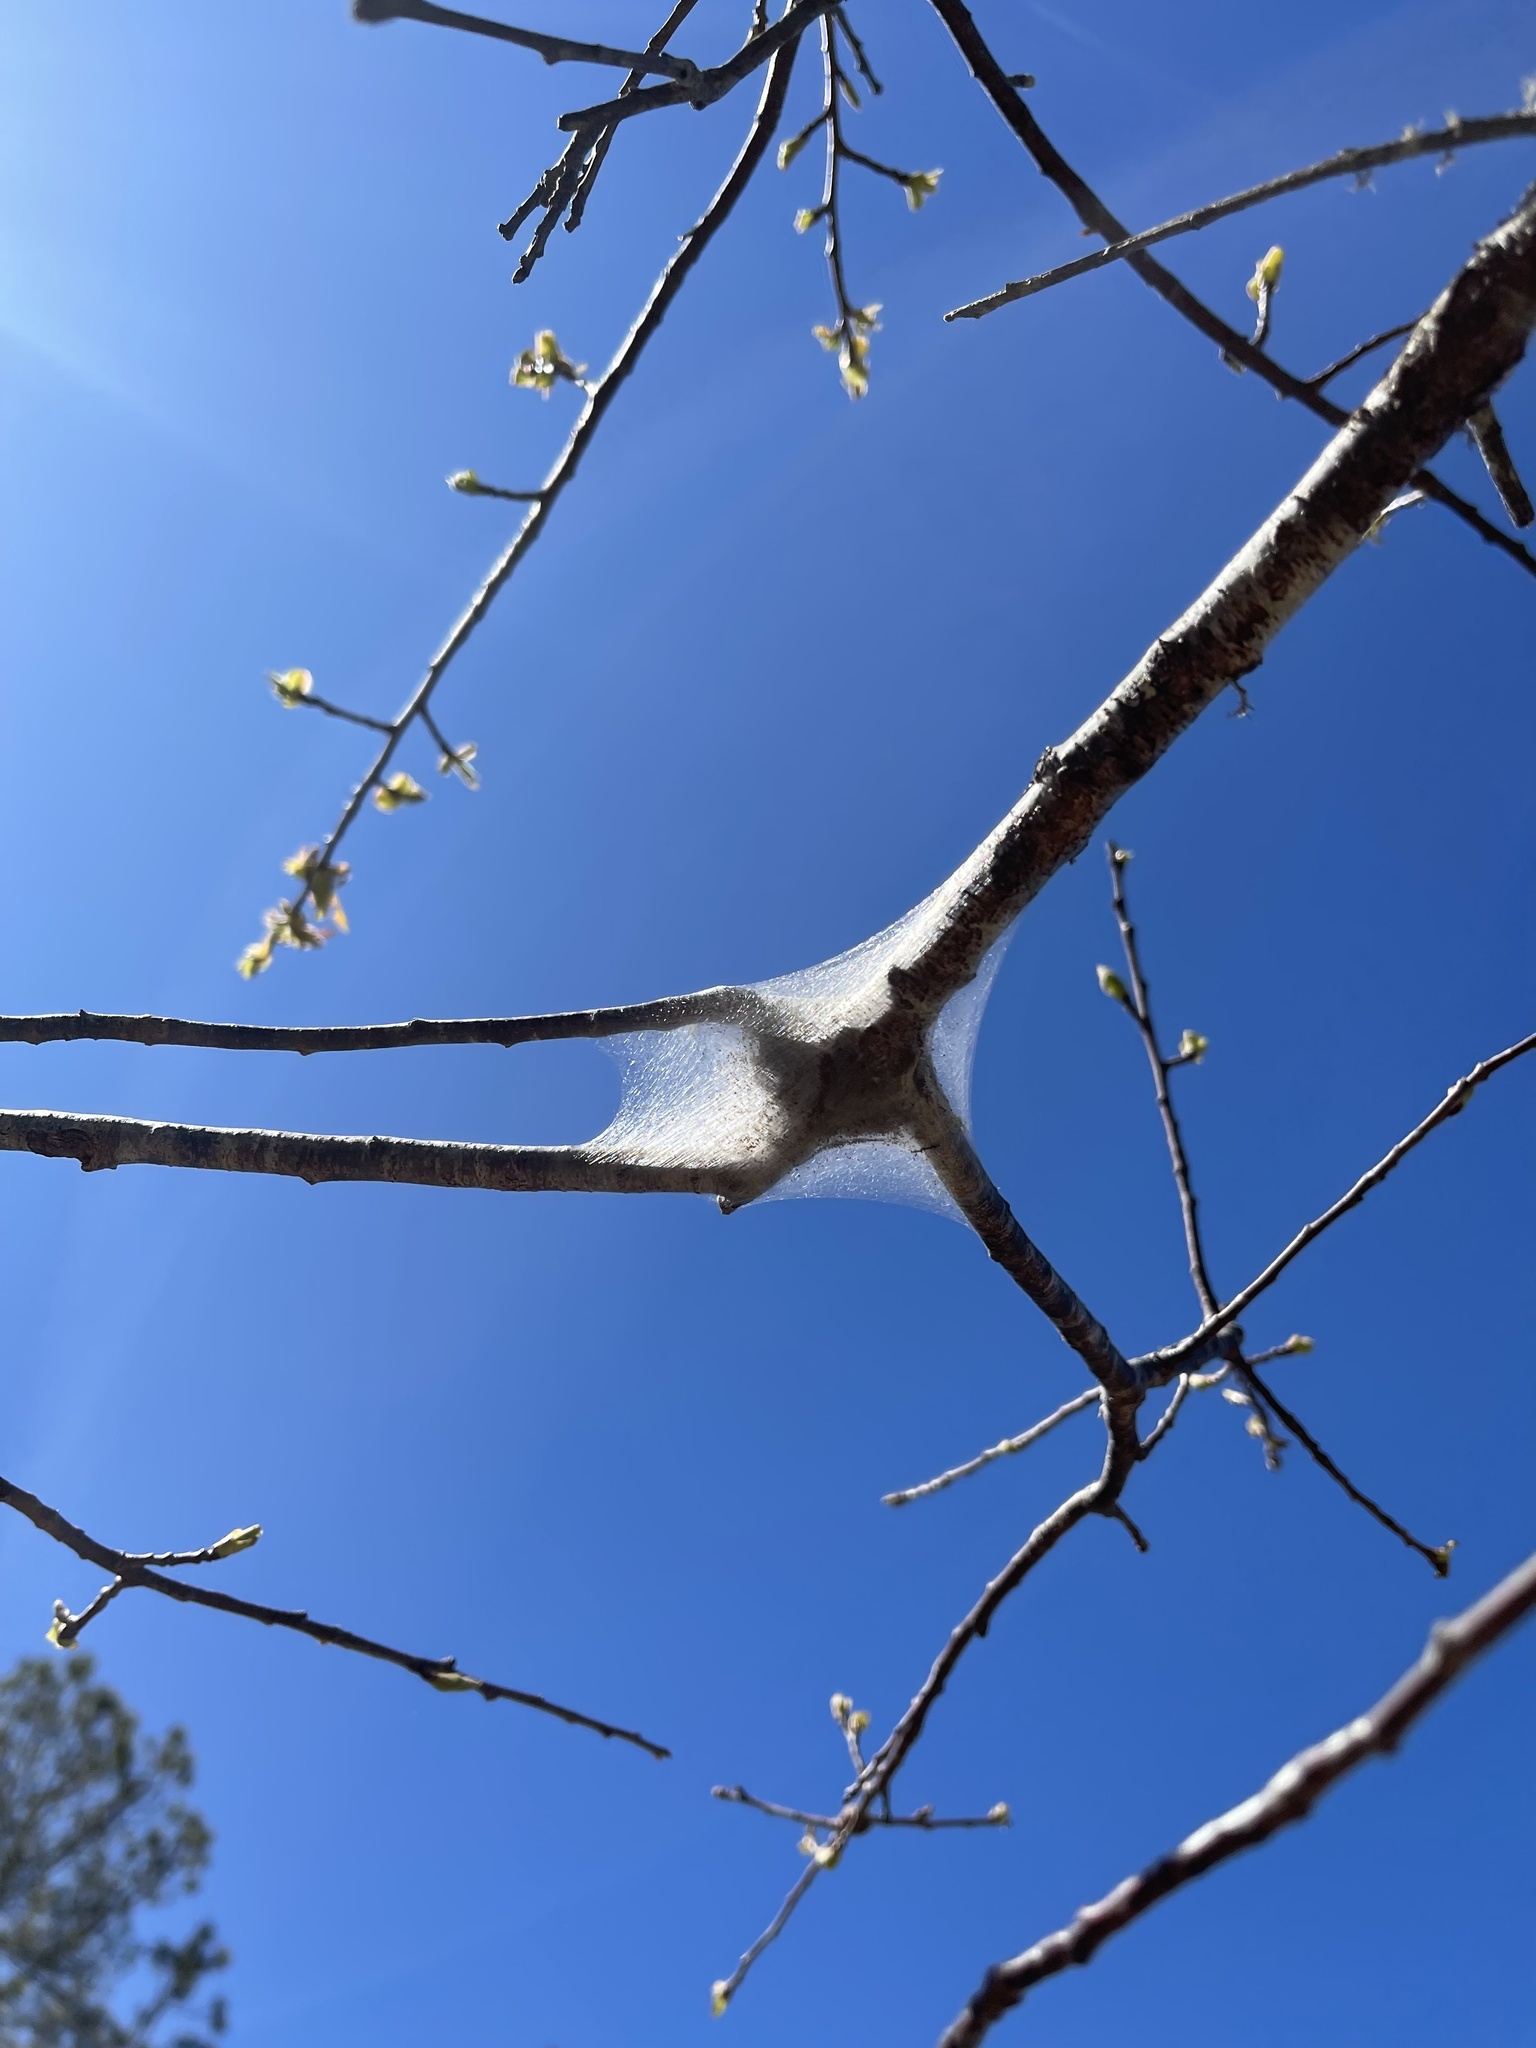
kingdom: Animalia
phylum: Arthropoda
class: Insecta
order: Lepidoptera
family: Lasiocampidae
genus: Malacosoma
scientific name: Malacosoma americana
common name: Eastern tent caterpillar moth
